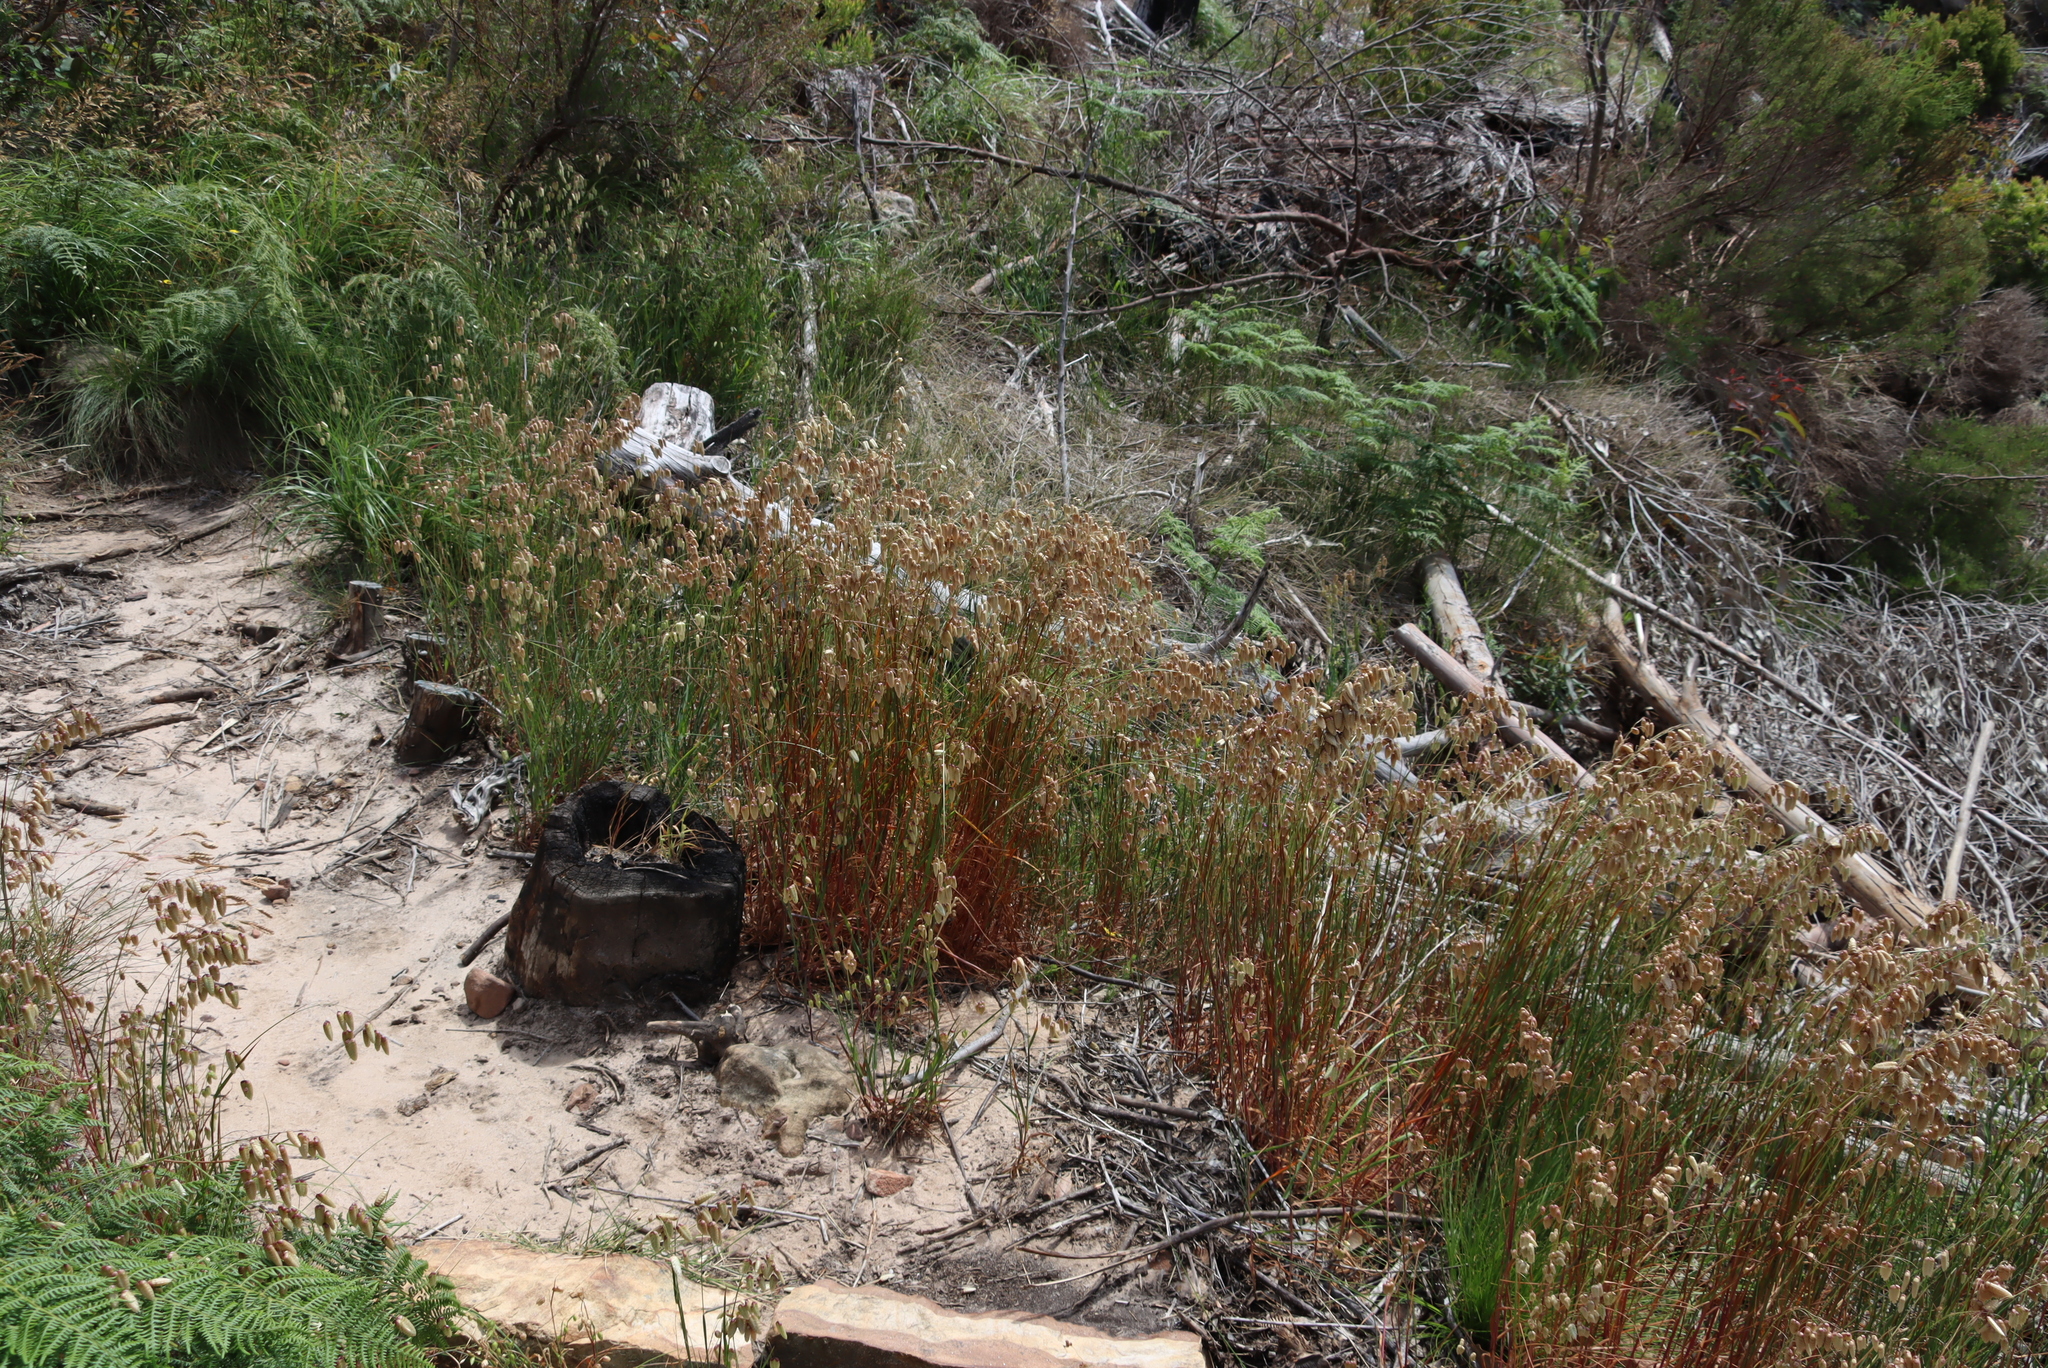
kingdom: Plantae
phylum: Tracheophyta
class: Liliopsida
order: Poales
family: Poaceae
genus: Briza
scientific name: Briza maxima
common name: Big quakinggrass
